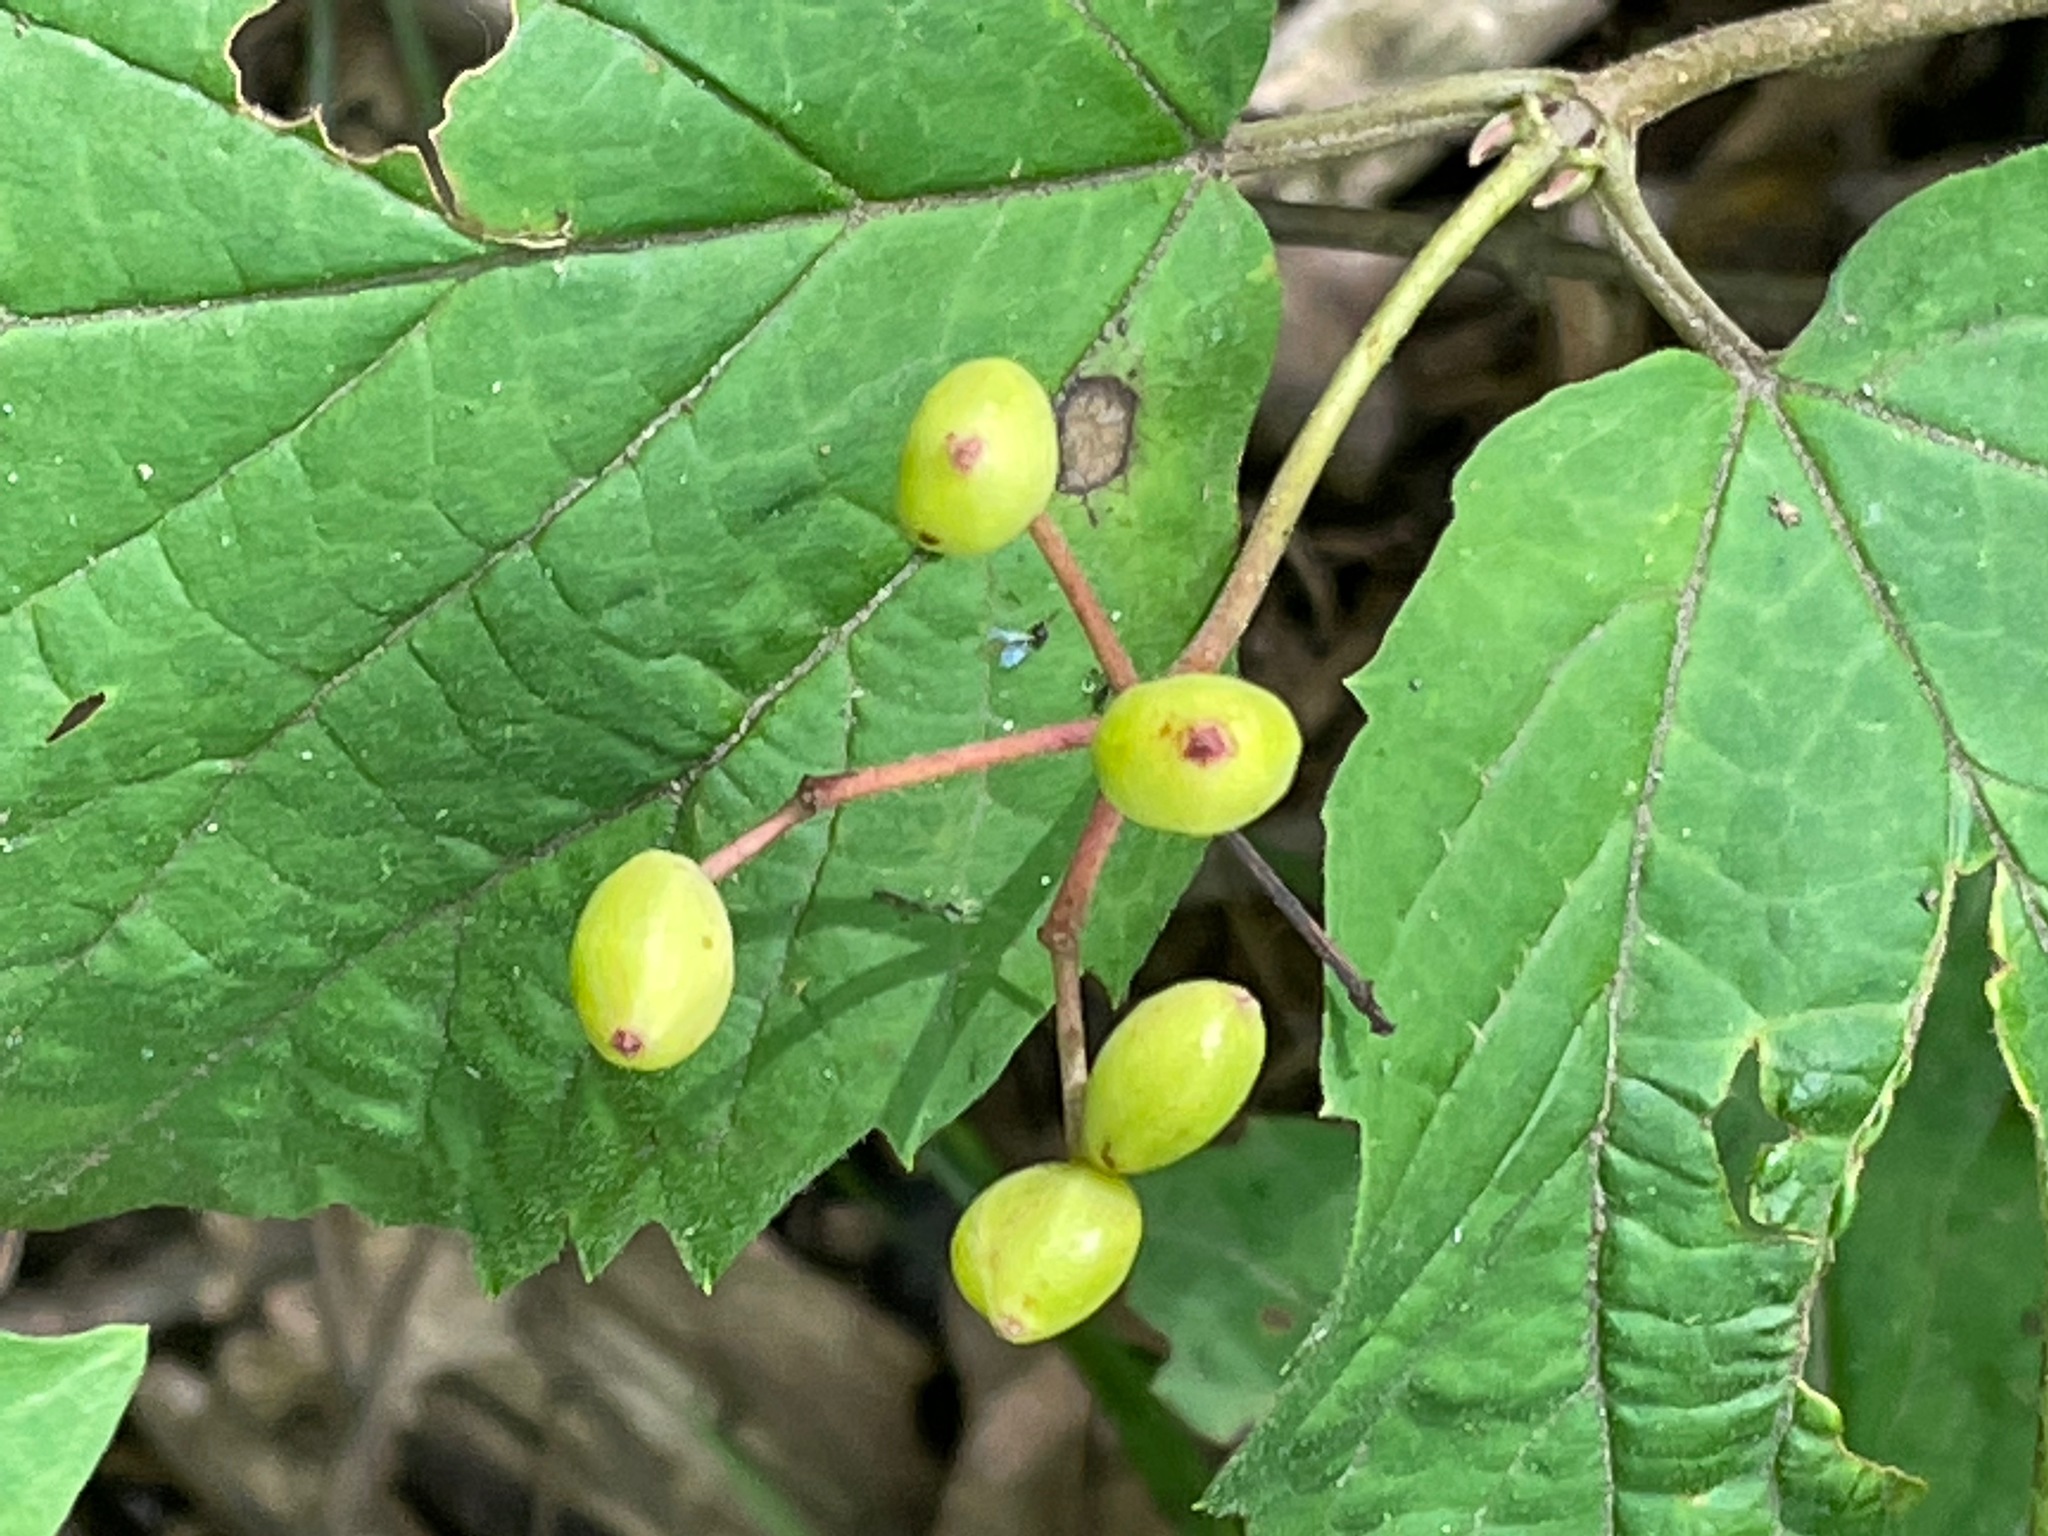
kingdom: Plantae
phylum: Tracheophyta
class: Magnoliopsida
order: Dipsacales
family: Viburnaceae
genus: Viburnum
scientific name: Viburnum acerifolium
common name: Dockmackie
